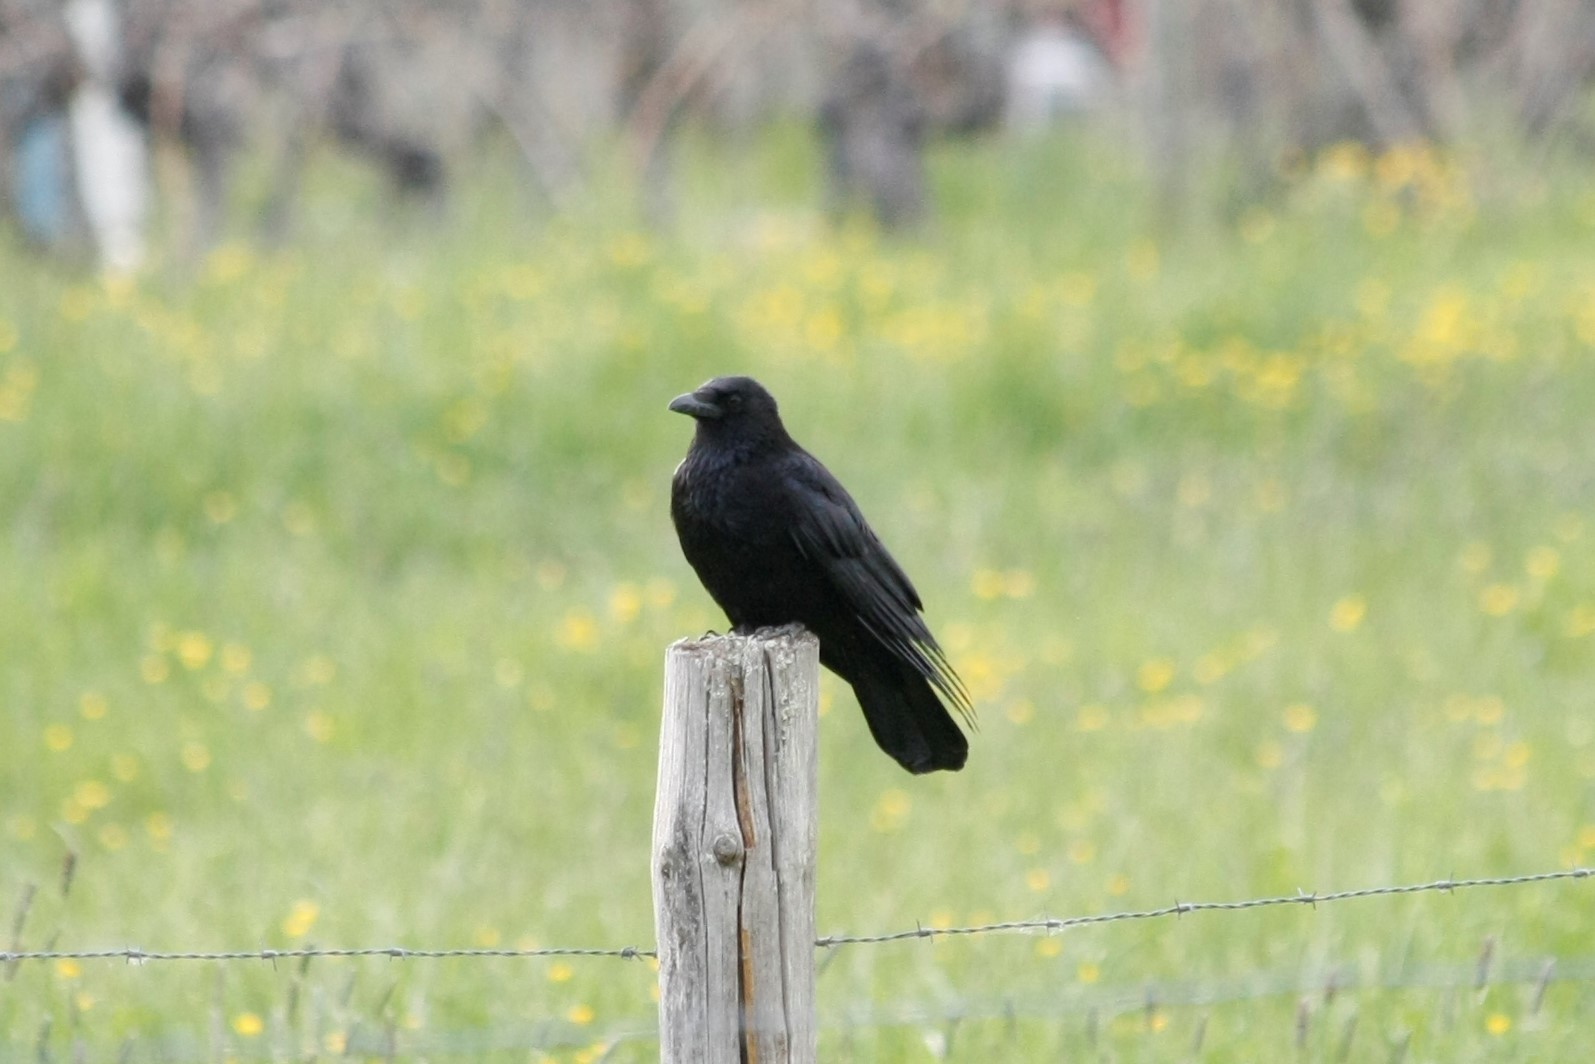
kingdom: Animalia
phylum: Chordata
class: Aves
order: Passeriformes
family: Corvidae
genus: Corvus
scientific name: Corvus corone
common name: Carrion crow
